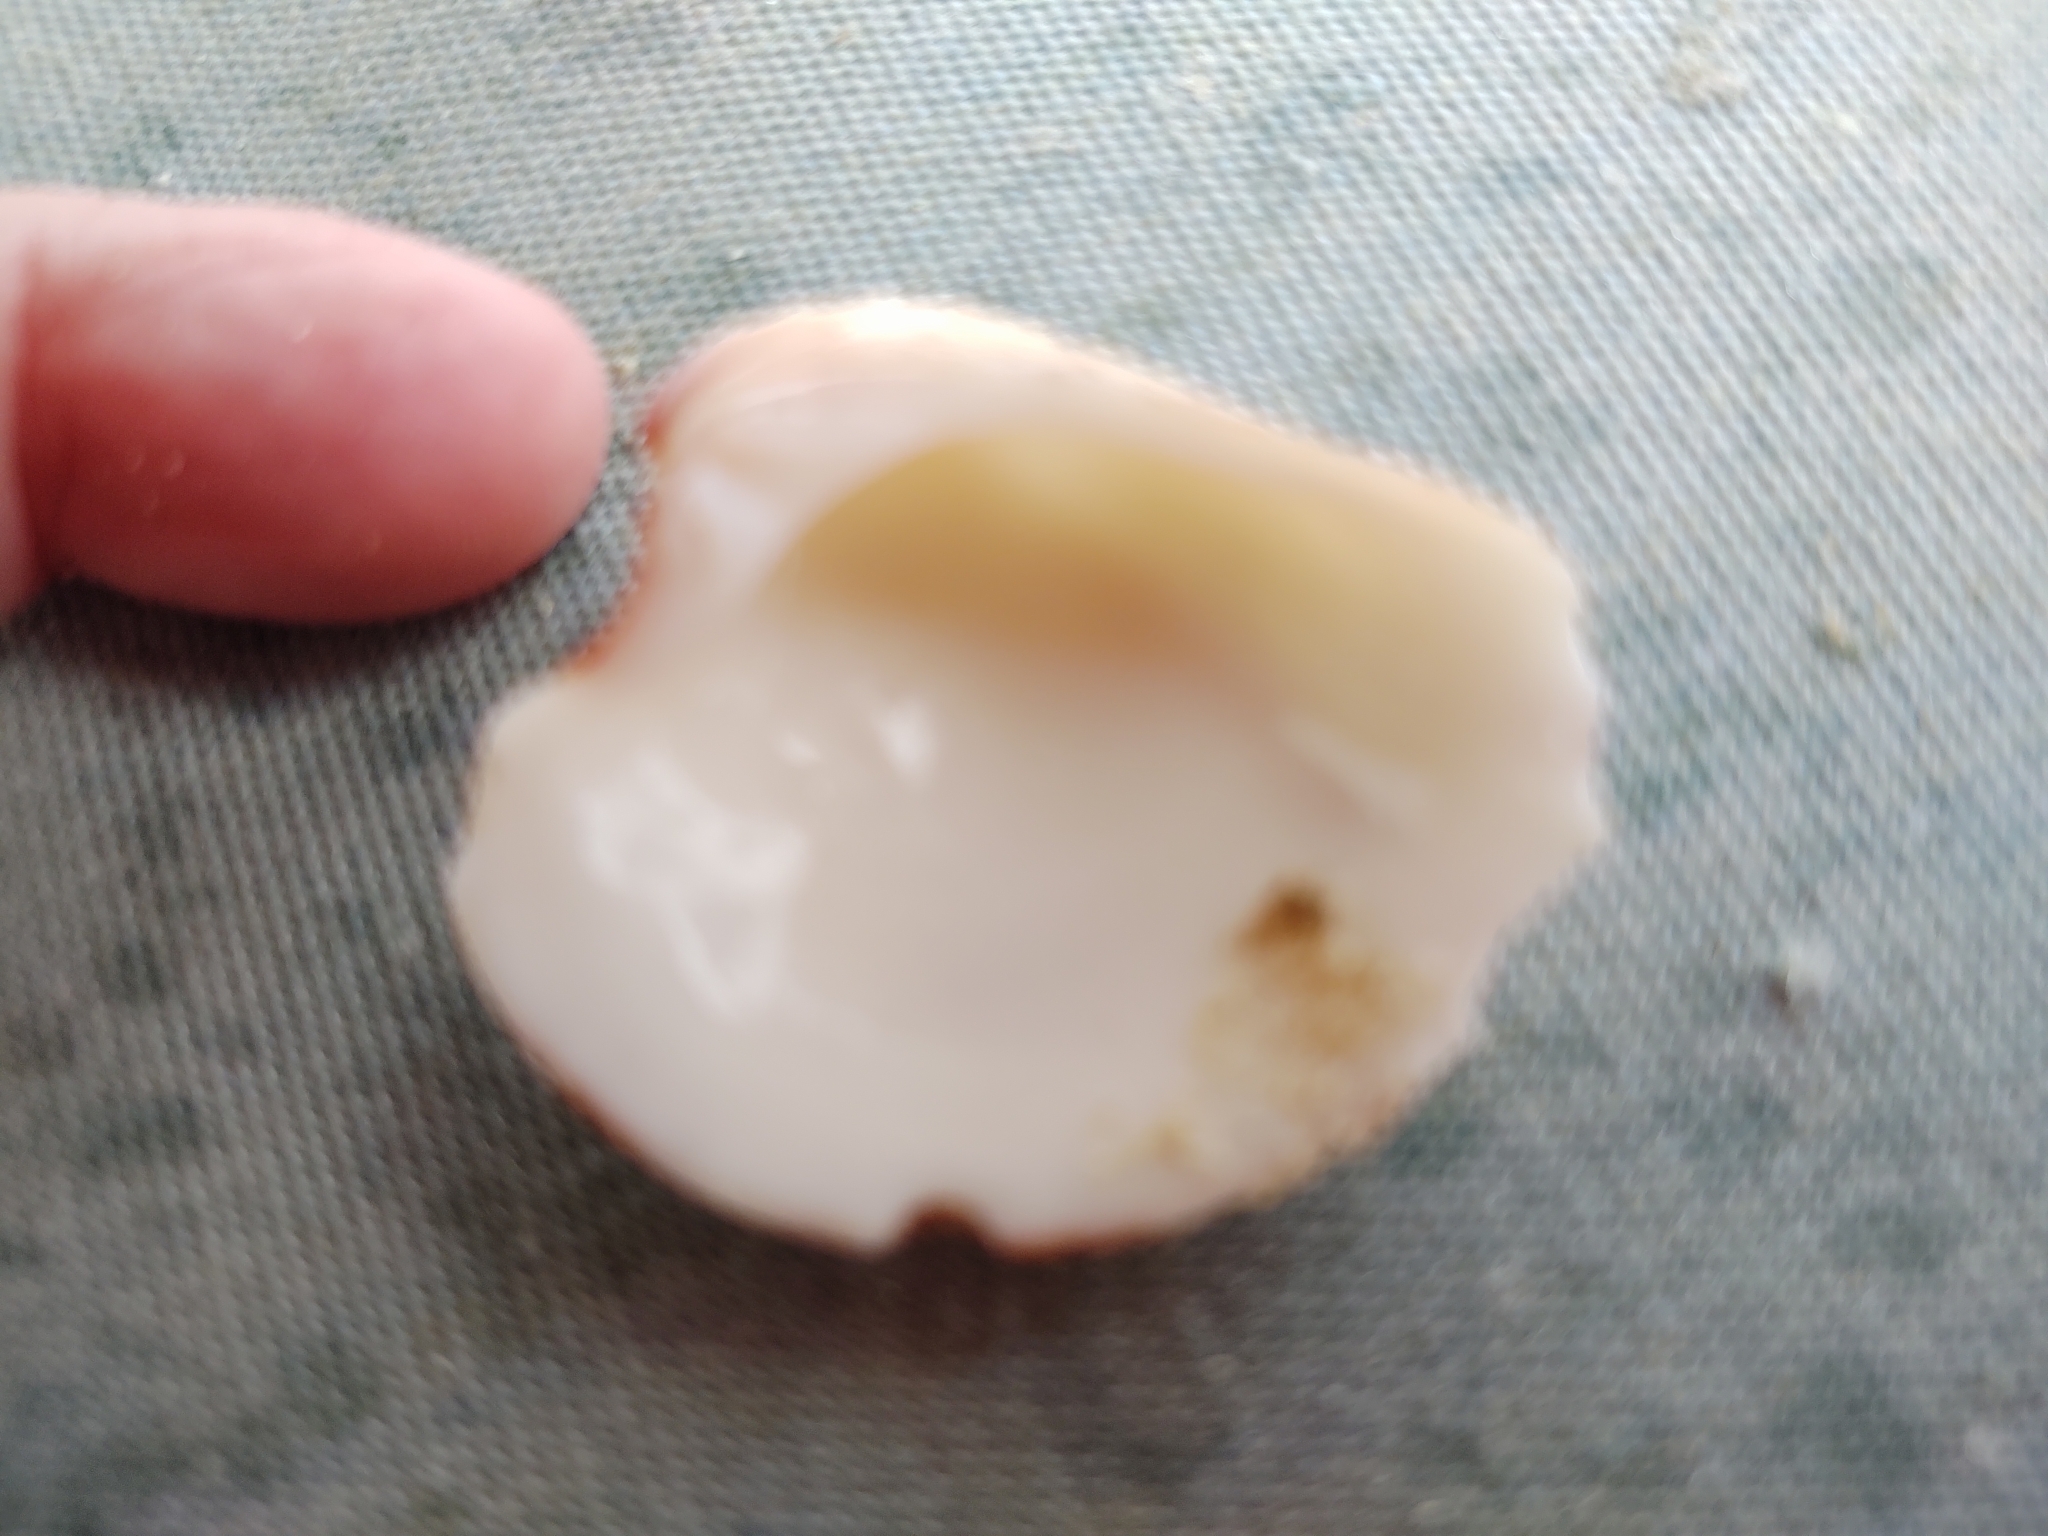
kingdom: Animalia
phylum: Mollusca
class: Bivalvia
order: Venerida
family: Veneridae
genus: Lirophora
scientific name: Lirophora paphia
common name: King venus
